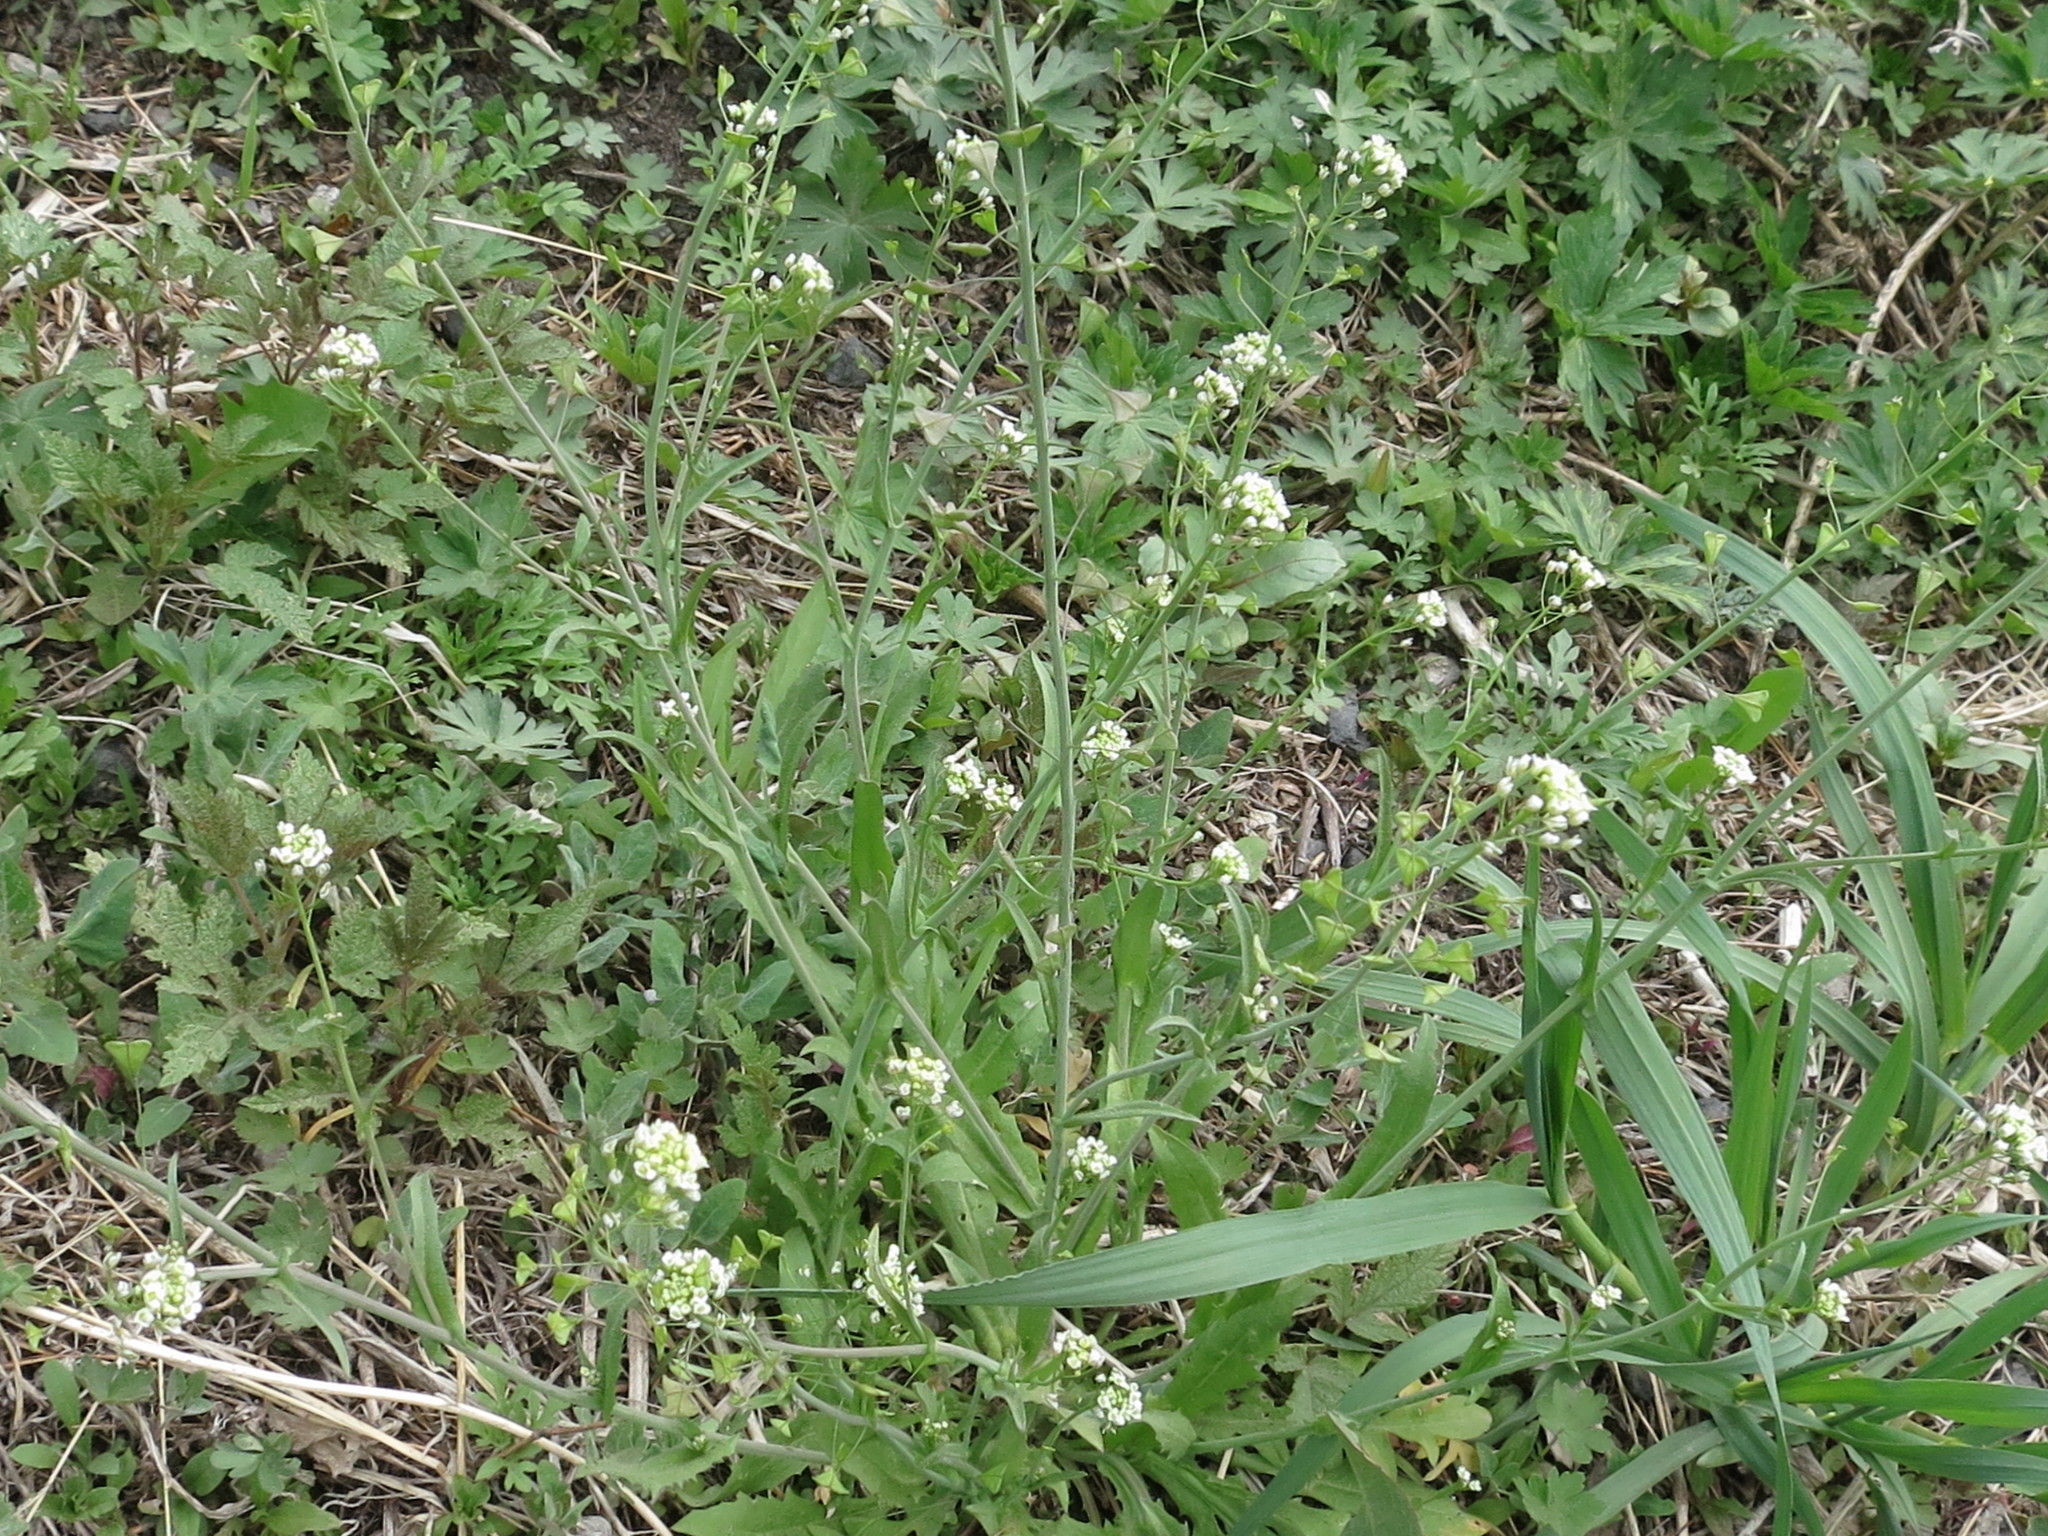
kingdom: Plantae
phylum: Tracheophyta
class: Magnoliopsida
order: Brassicales
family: Brassicaceae
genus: Capsella
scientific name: Capsella bursa-pastoris
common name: Shepherd's purse
